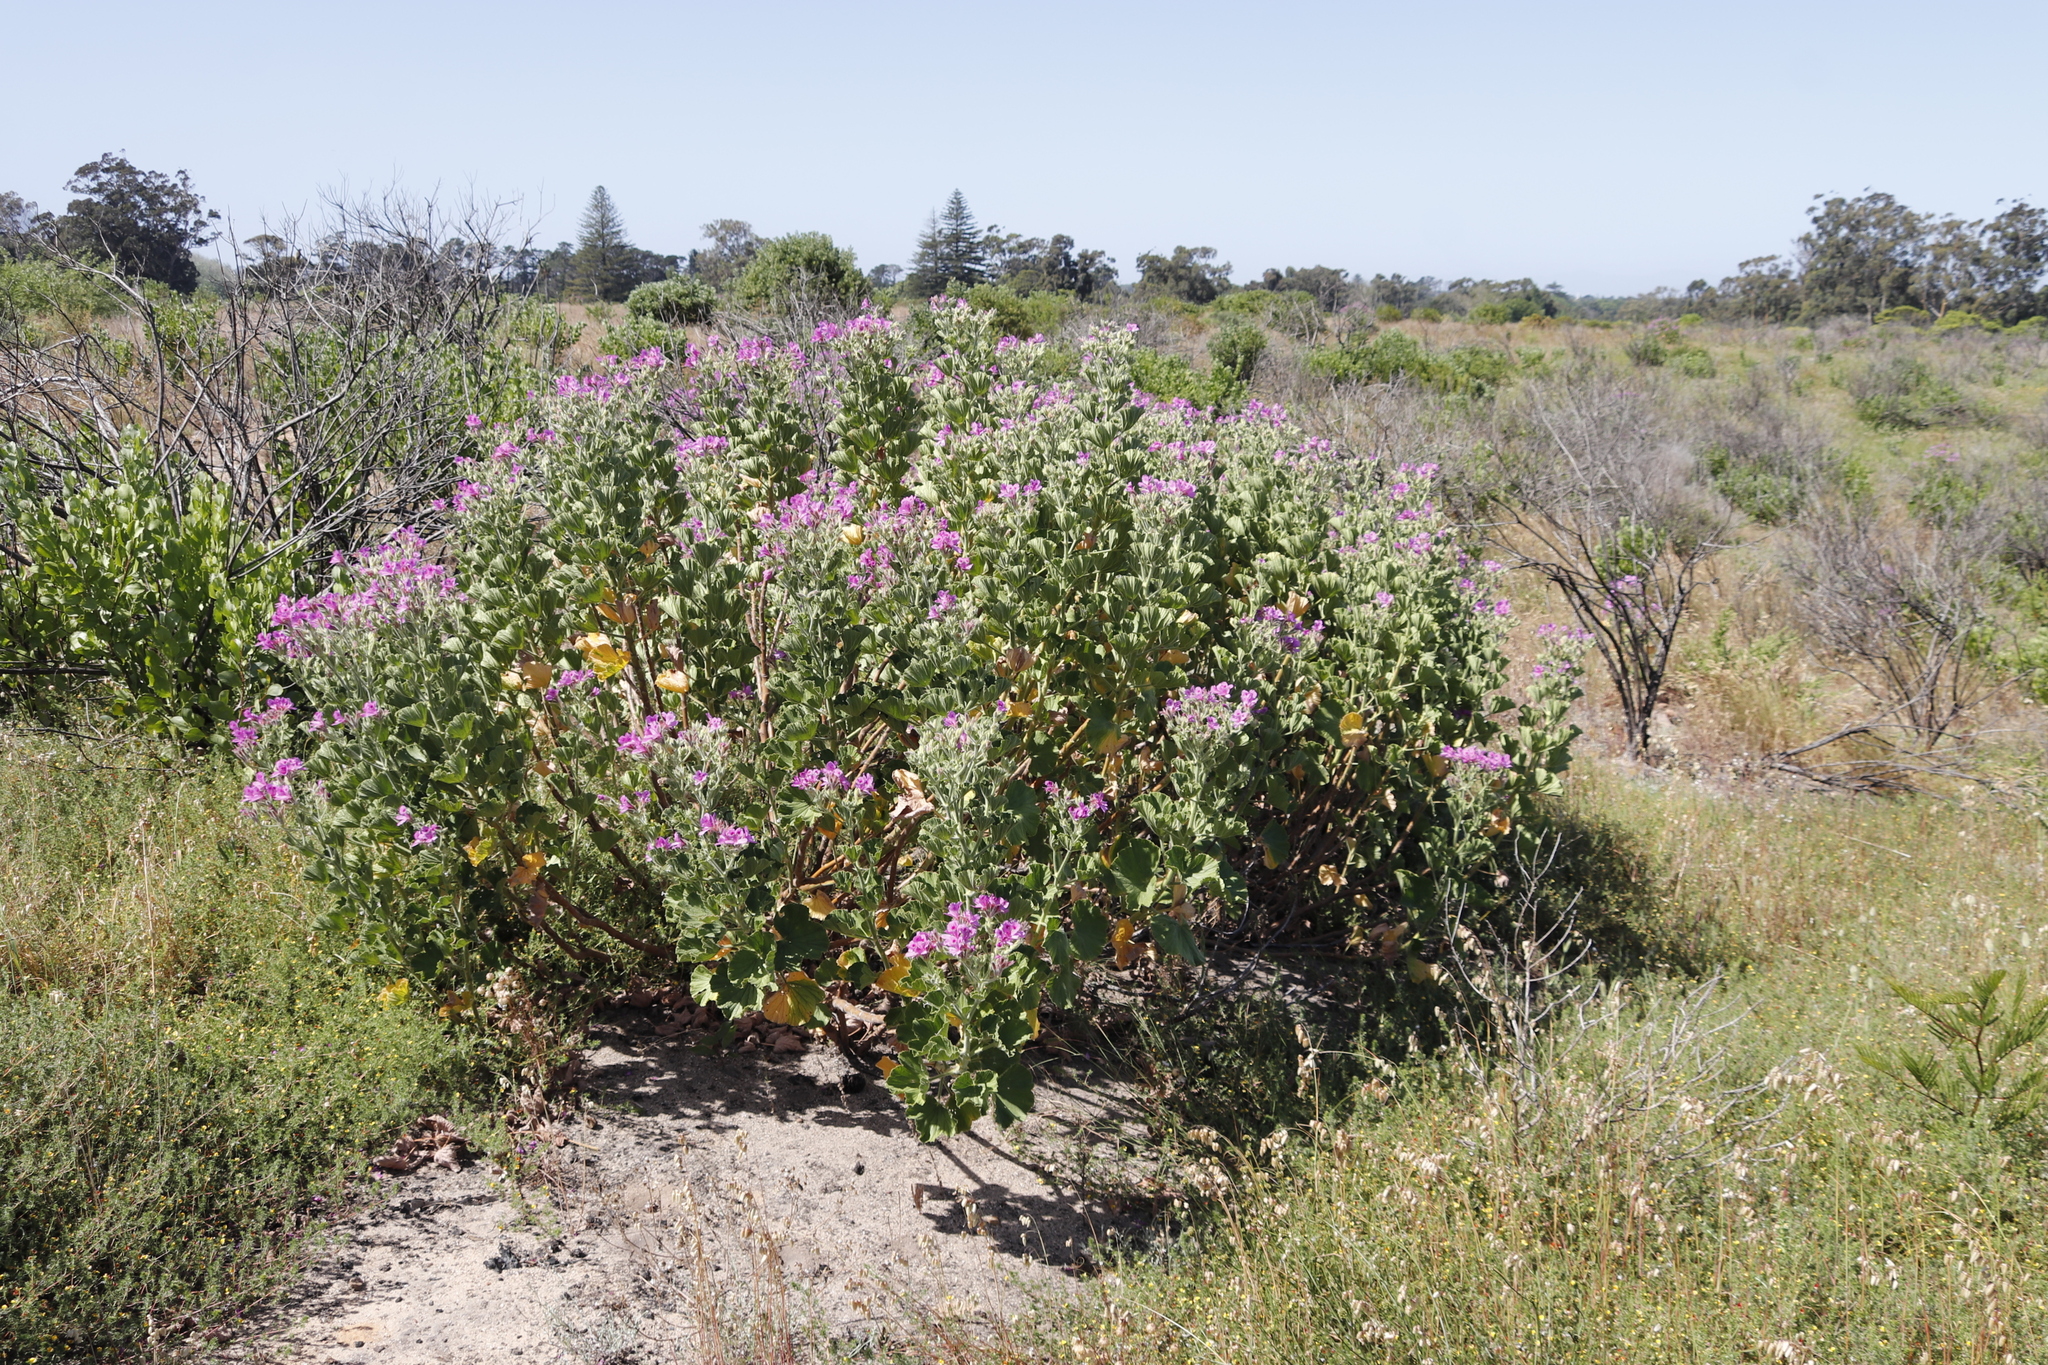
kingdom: Plantae
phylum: Tracheophyta
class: Magnoliopsida
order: Geraniales
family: Geraniaceae
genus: Pelargonium
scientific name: Pelargonium cucullatum
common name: Tree pelargonium
